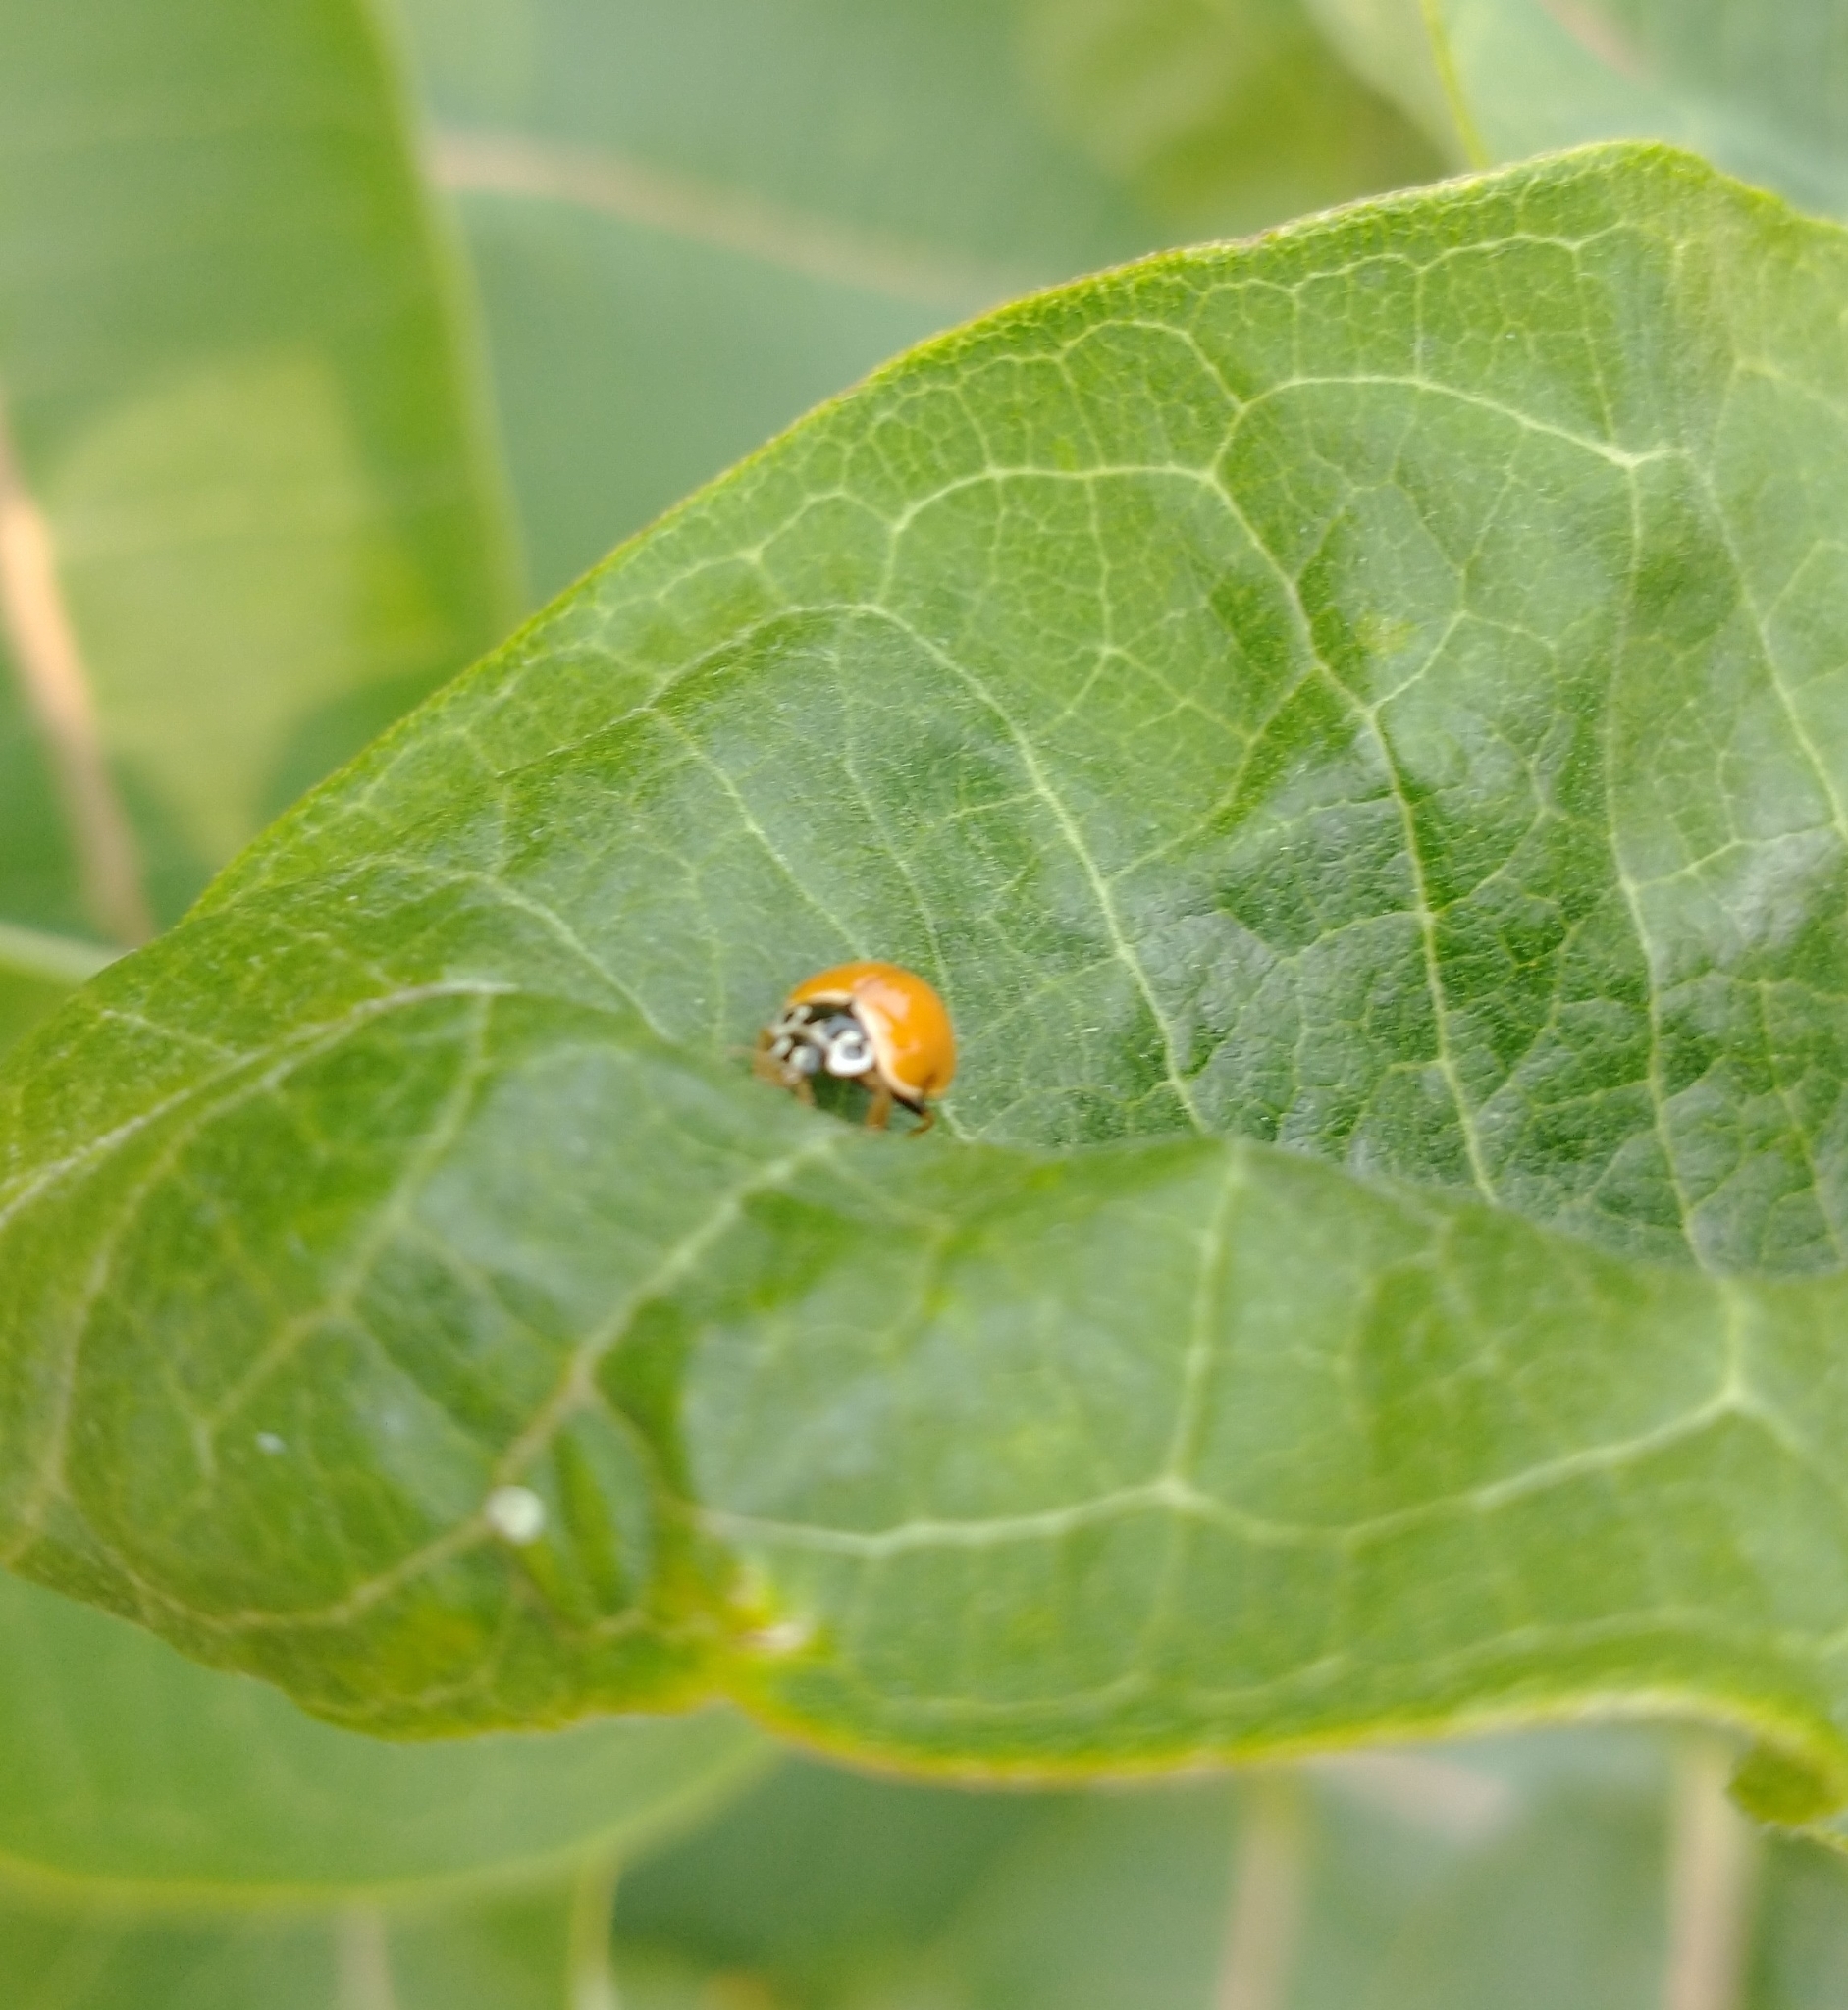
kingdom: Animalia
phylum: Arthropoda
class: Insecta
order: Coleoptera
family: Coccinellidae
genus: Cycloneda
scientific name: Cycloneda munda
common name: Polished lady beetle
